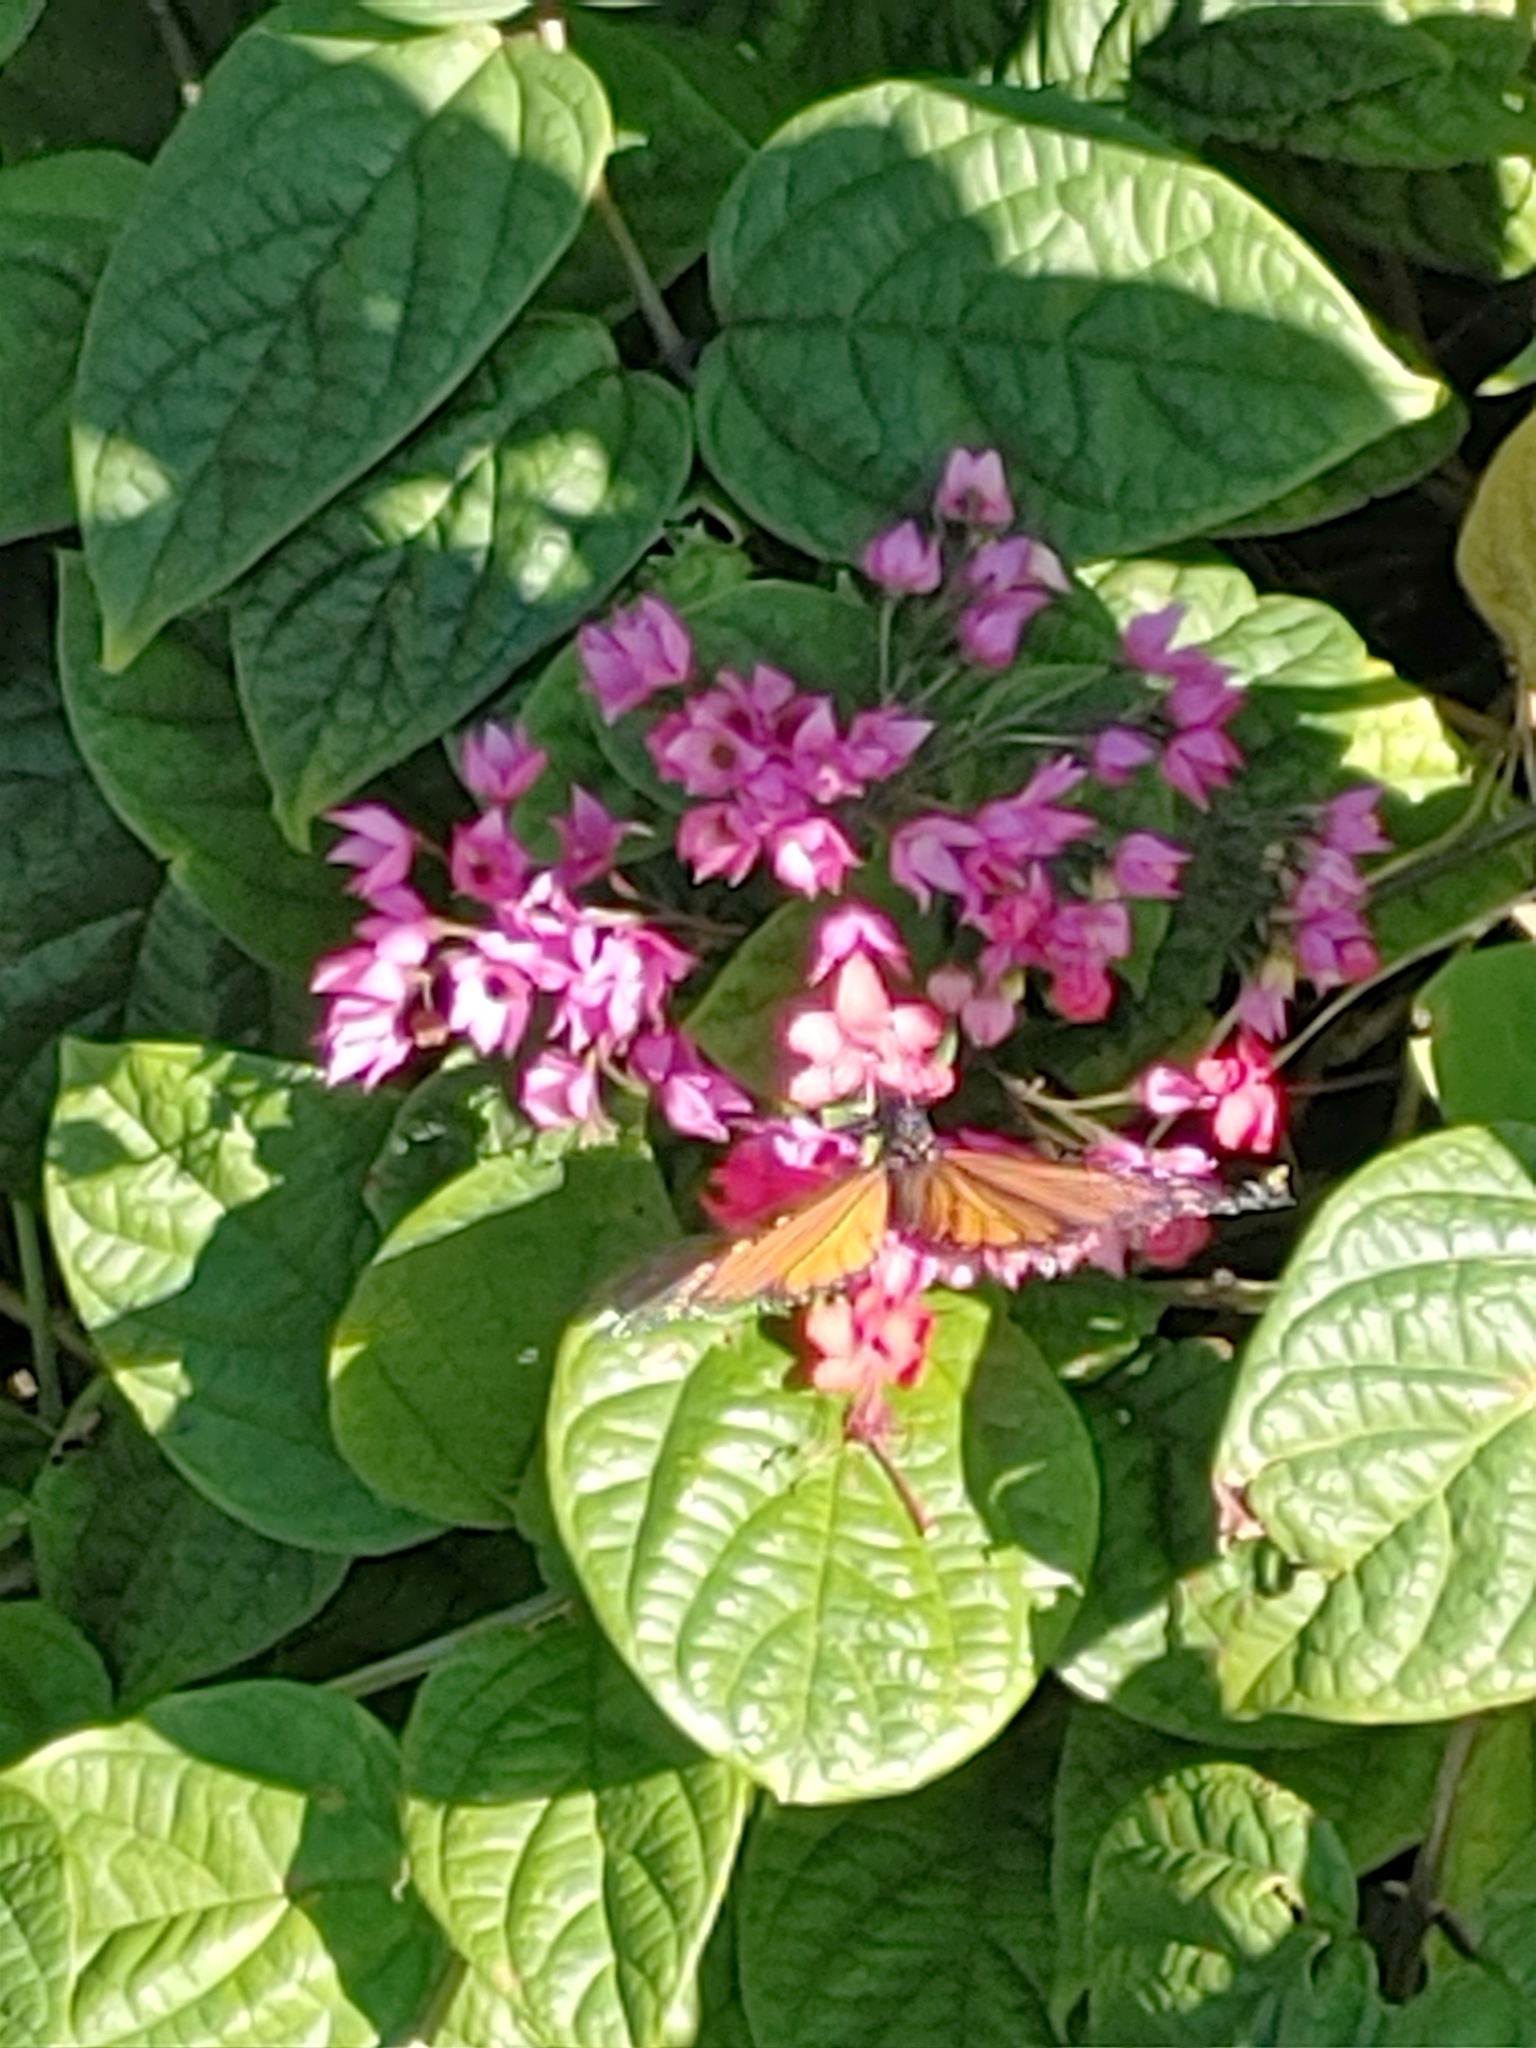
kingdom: Animalia
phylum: Arthropoda
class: Insecta
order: Lepidoptera
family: Nymphalidae
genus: Danaus
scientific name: Danaus plexippus
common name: Monarch
